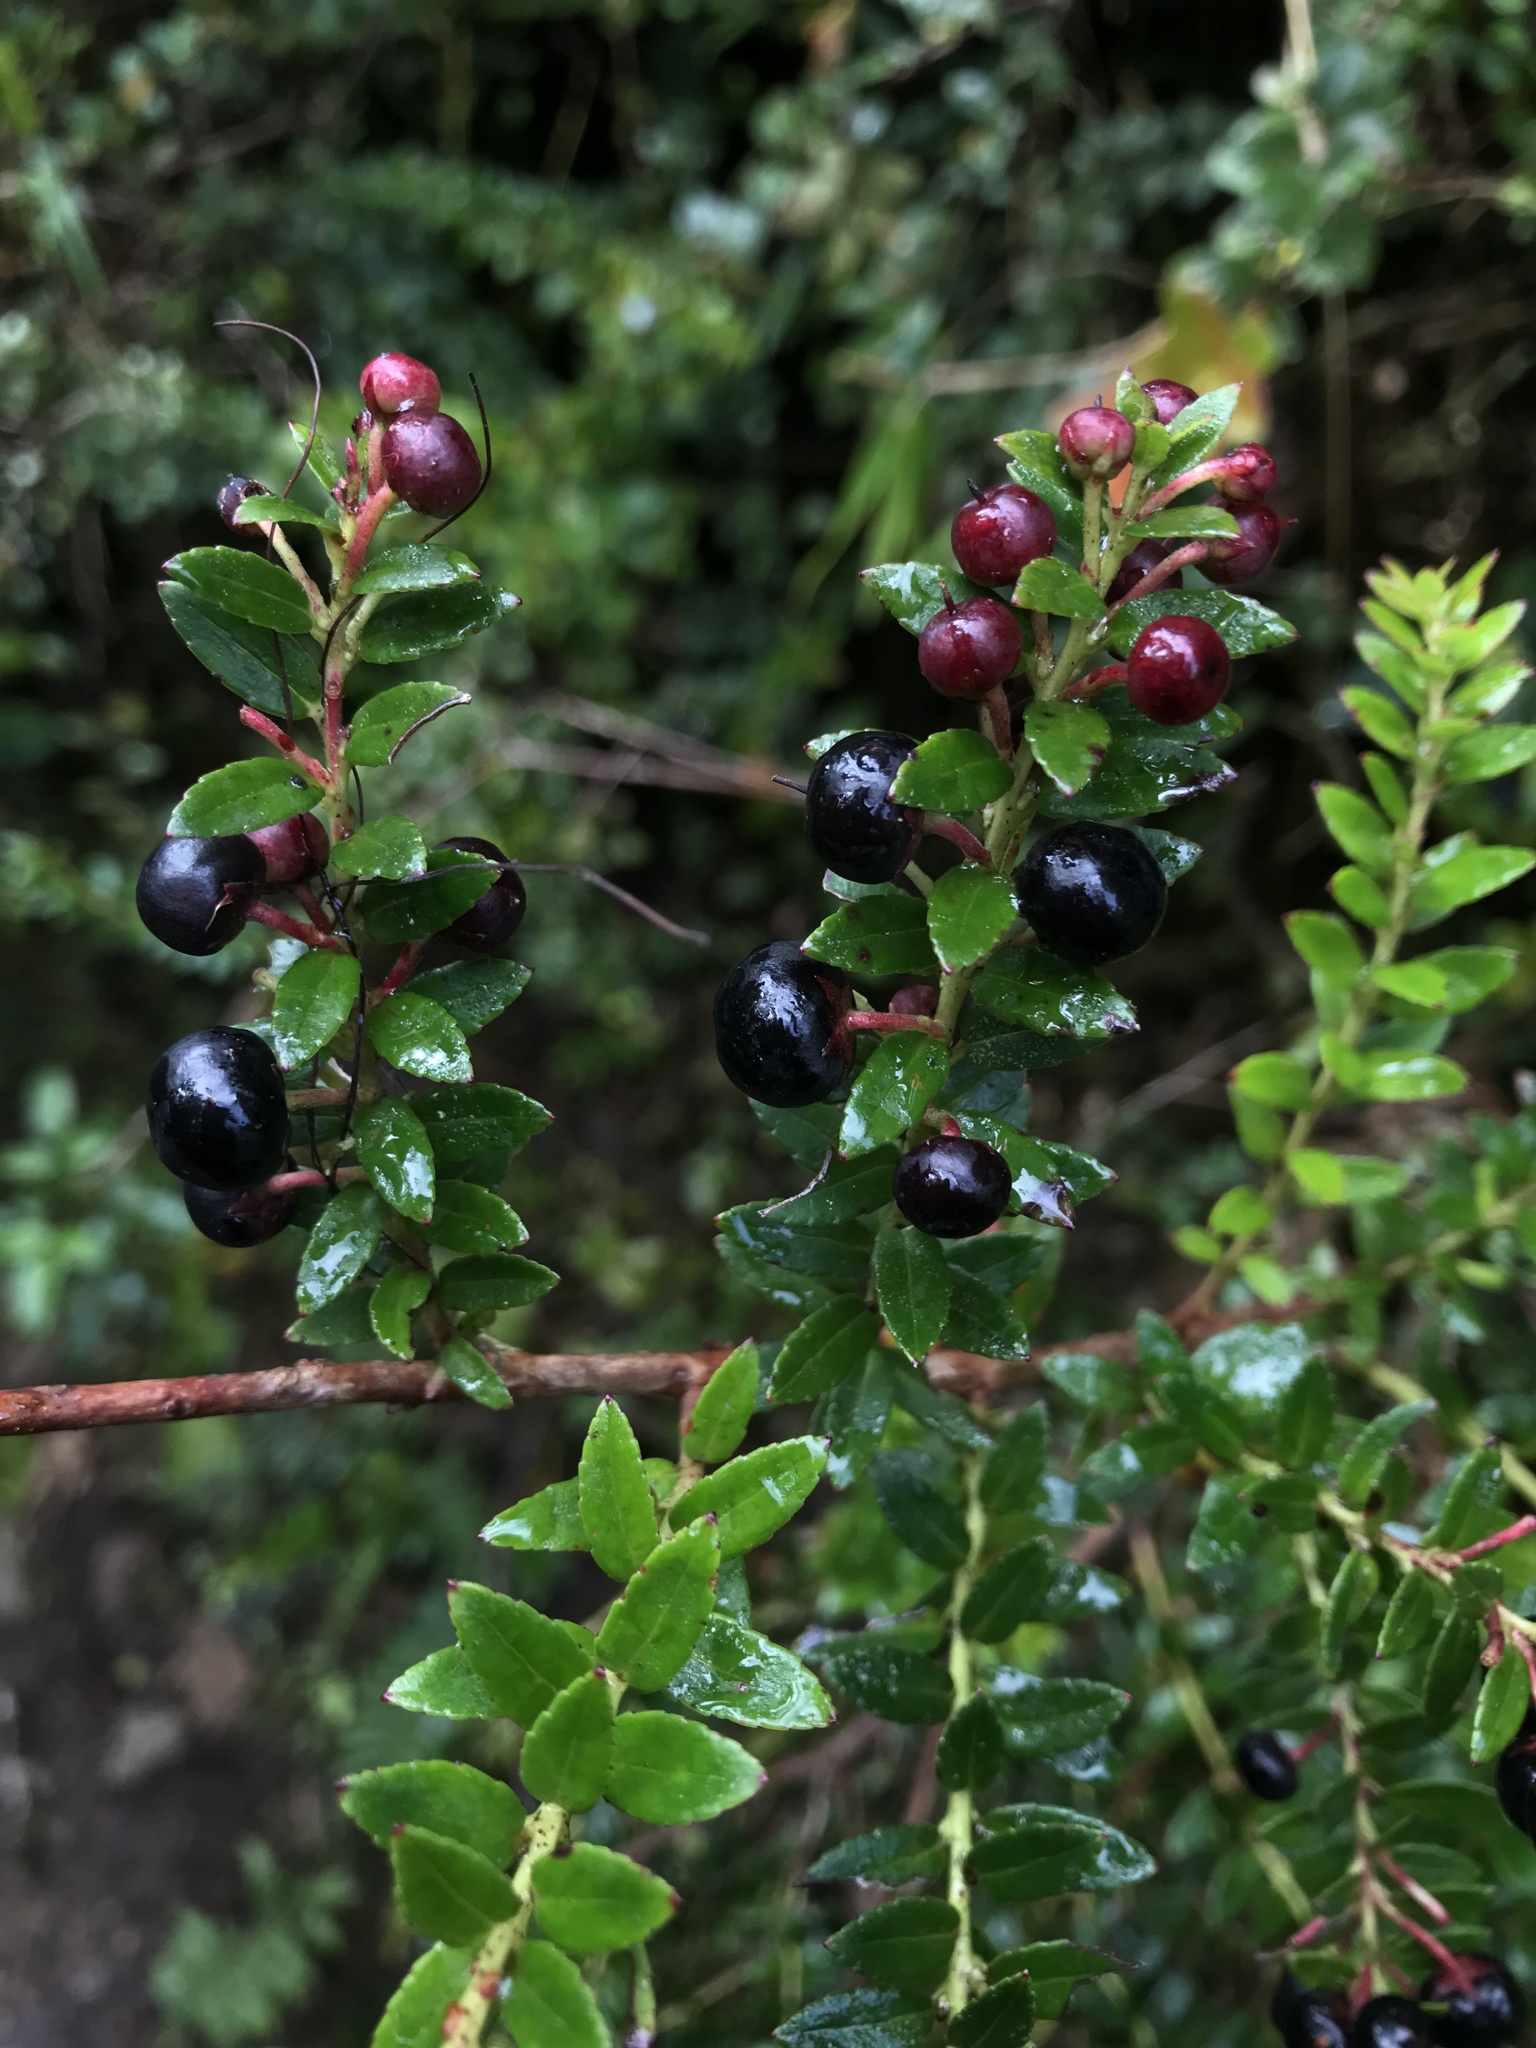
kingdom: Plantae
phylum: Tracheophyta
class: Magnoliopsida
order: Ericales
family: Ericaceae
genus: Gaultheria
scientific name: Gaultheria myrsinoides
